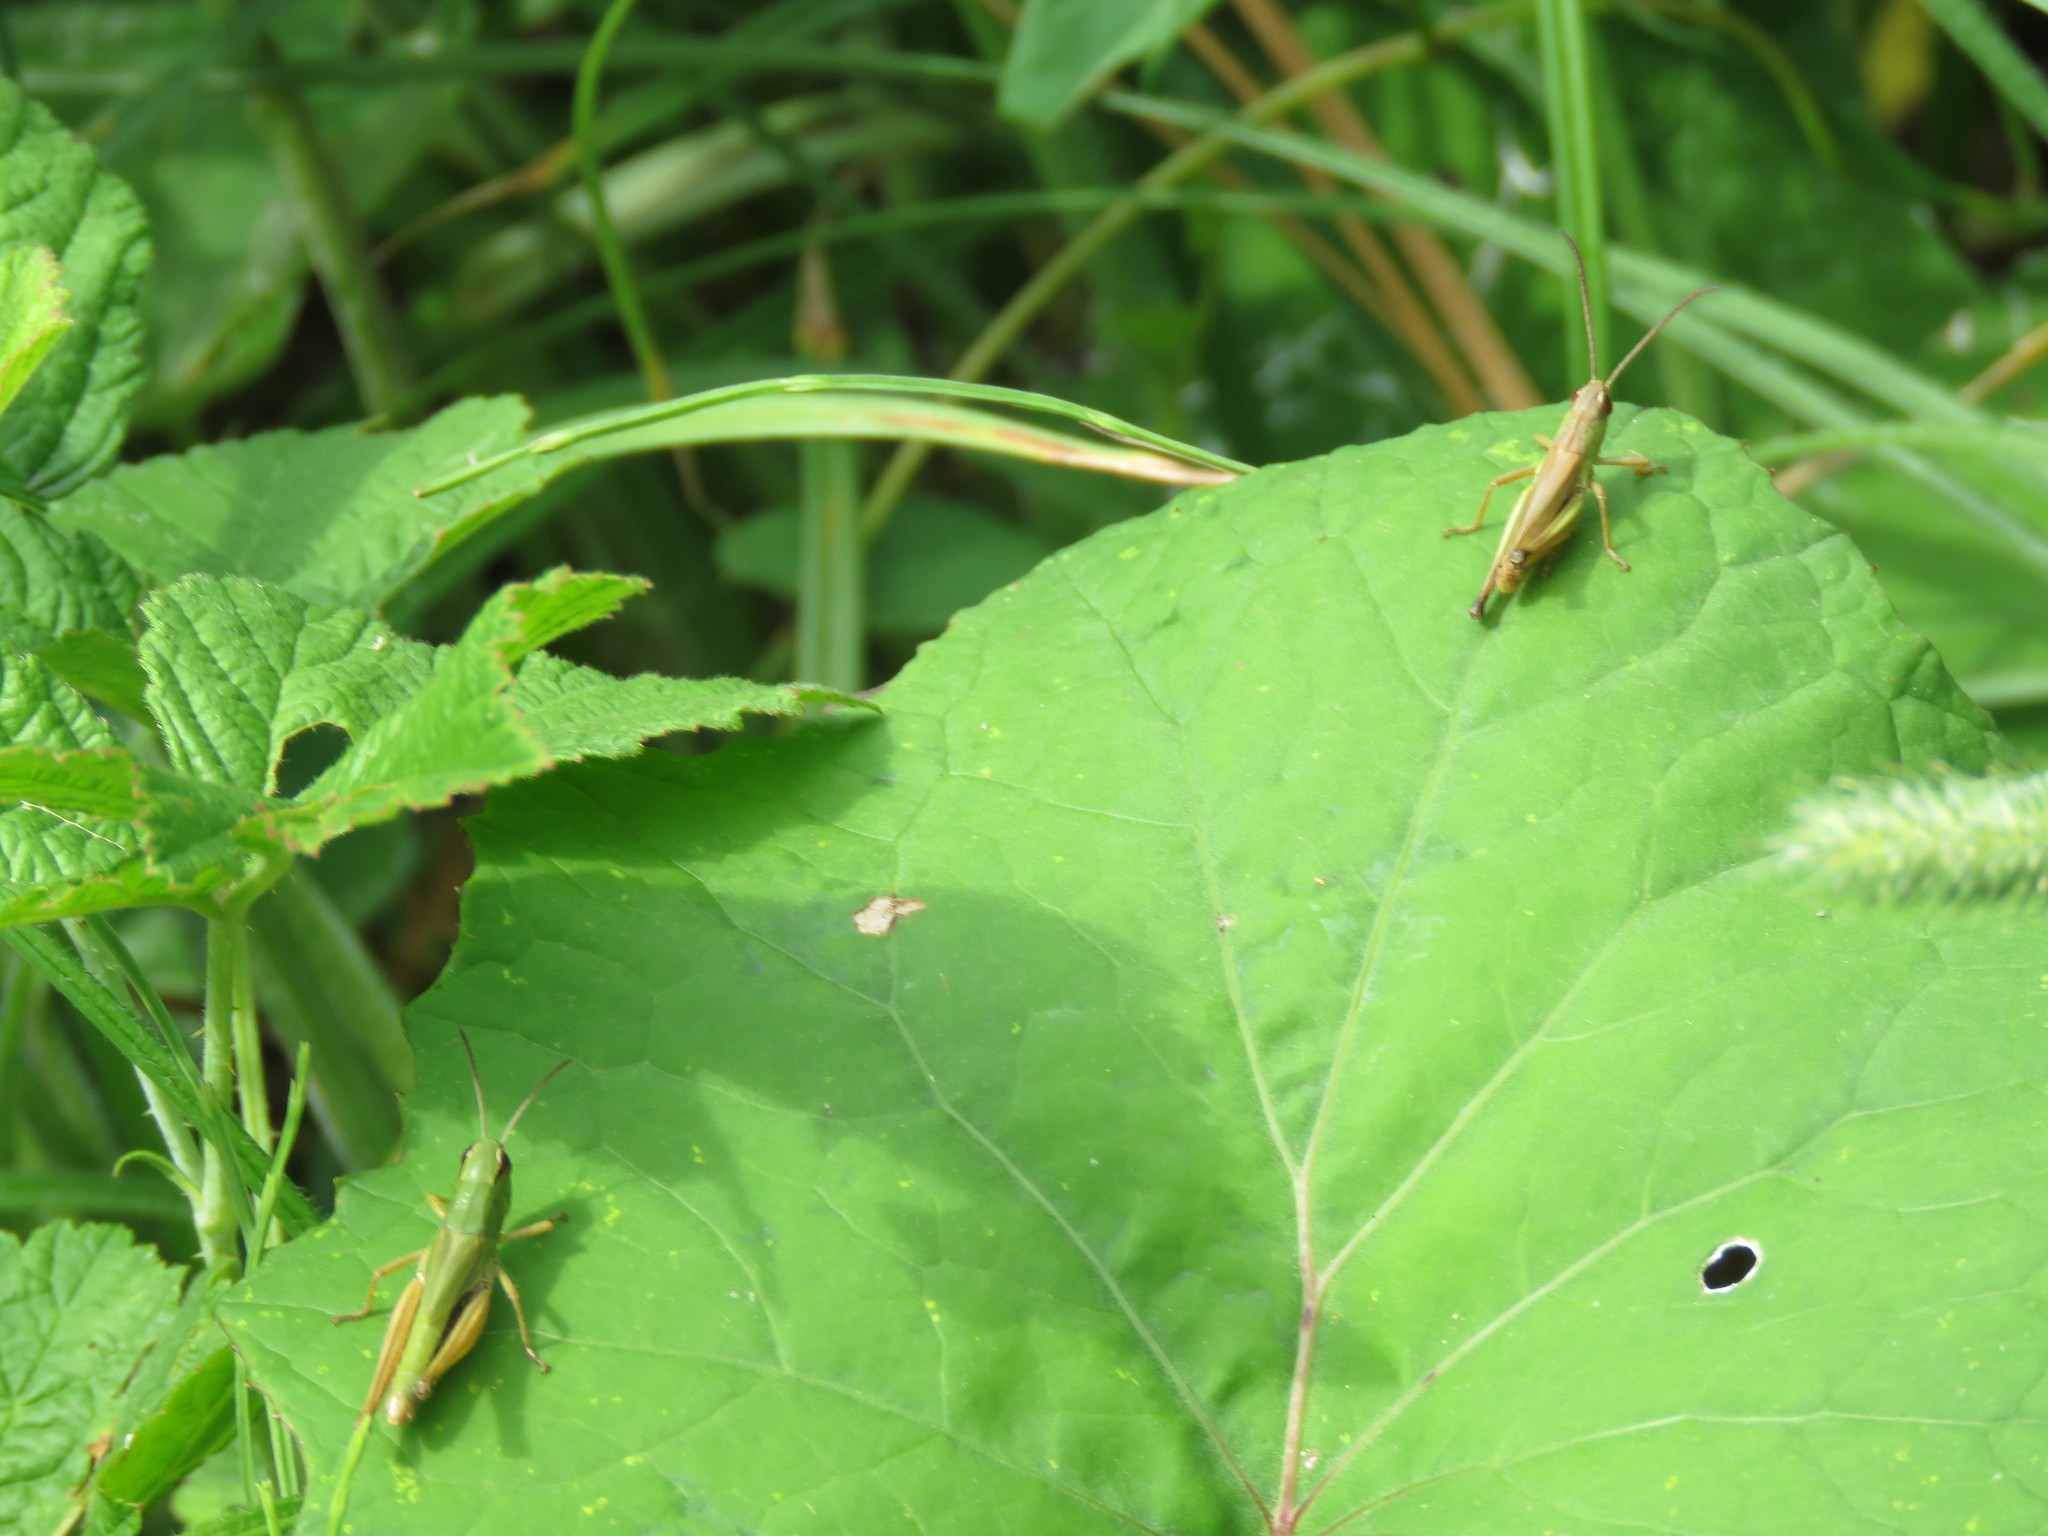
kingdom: Animalia
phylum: Arthropoda
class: Insecta
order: Orthoptera
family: Acrididae
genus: Pseudochorthippus
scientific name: Pseudochorthippus parallelus
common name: Meadow grasshopper
